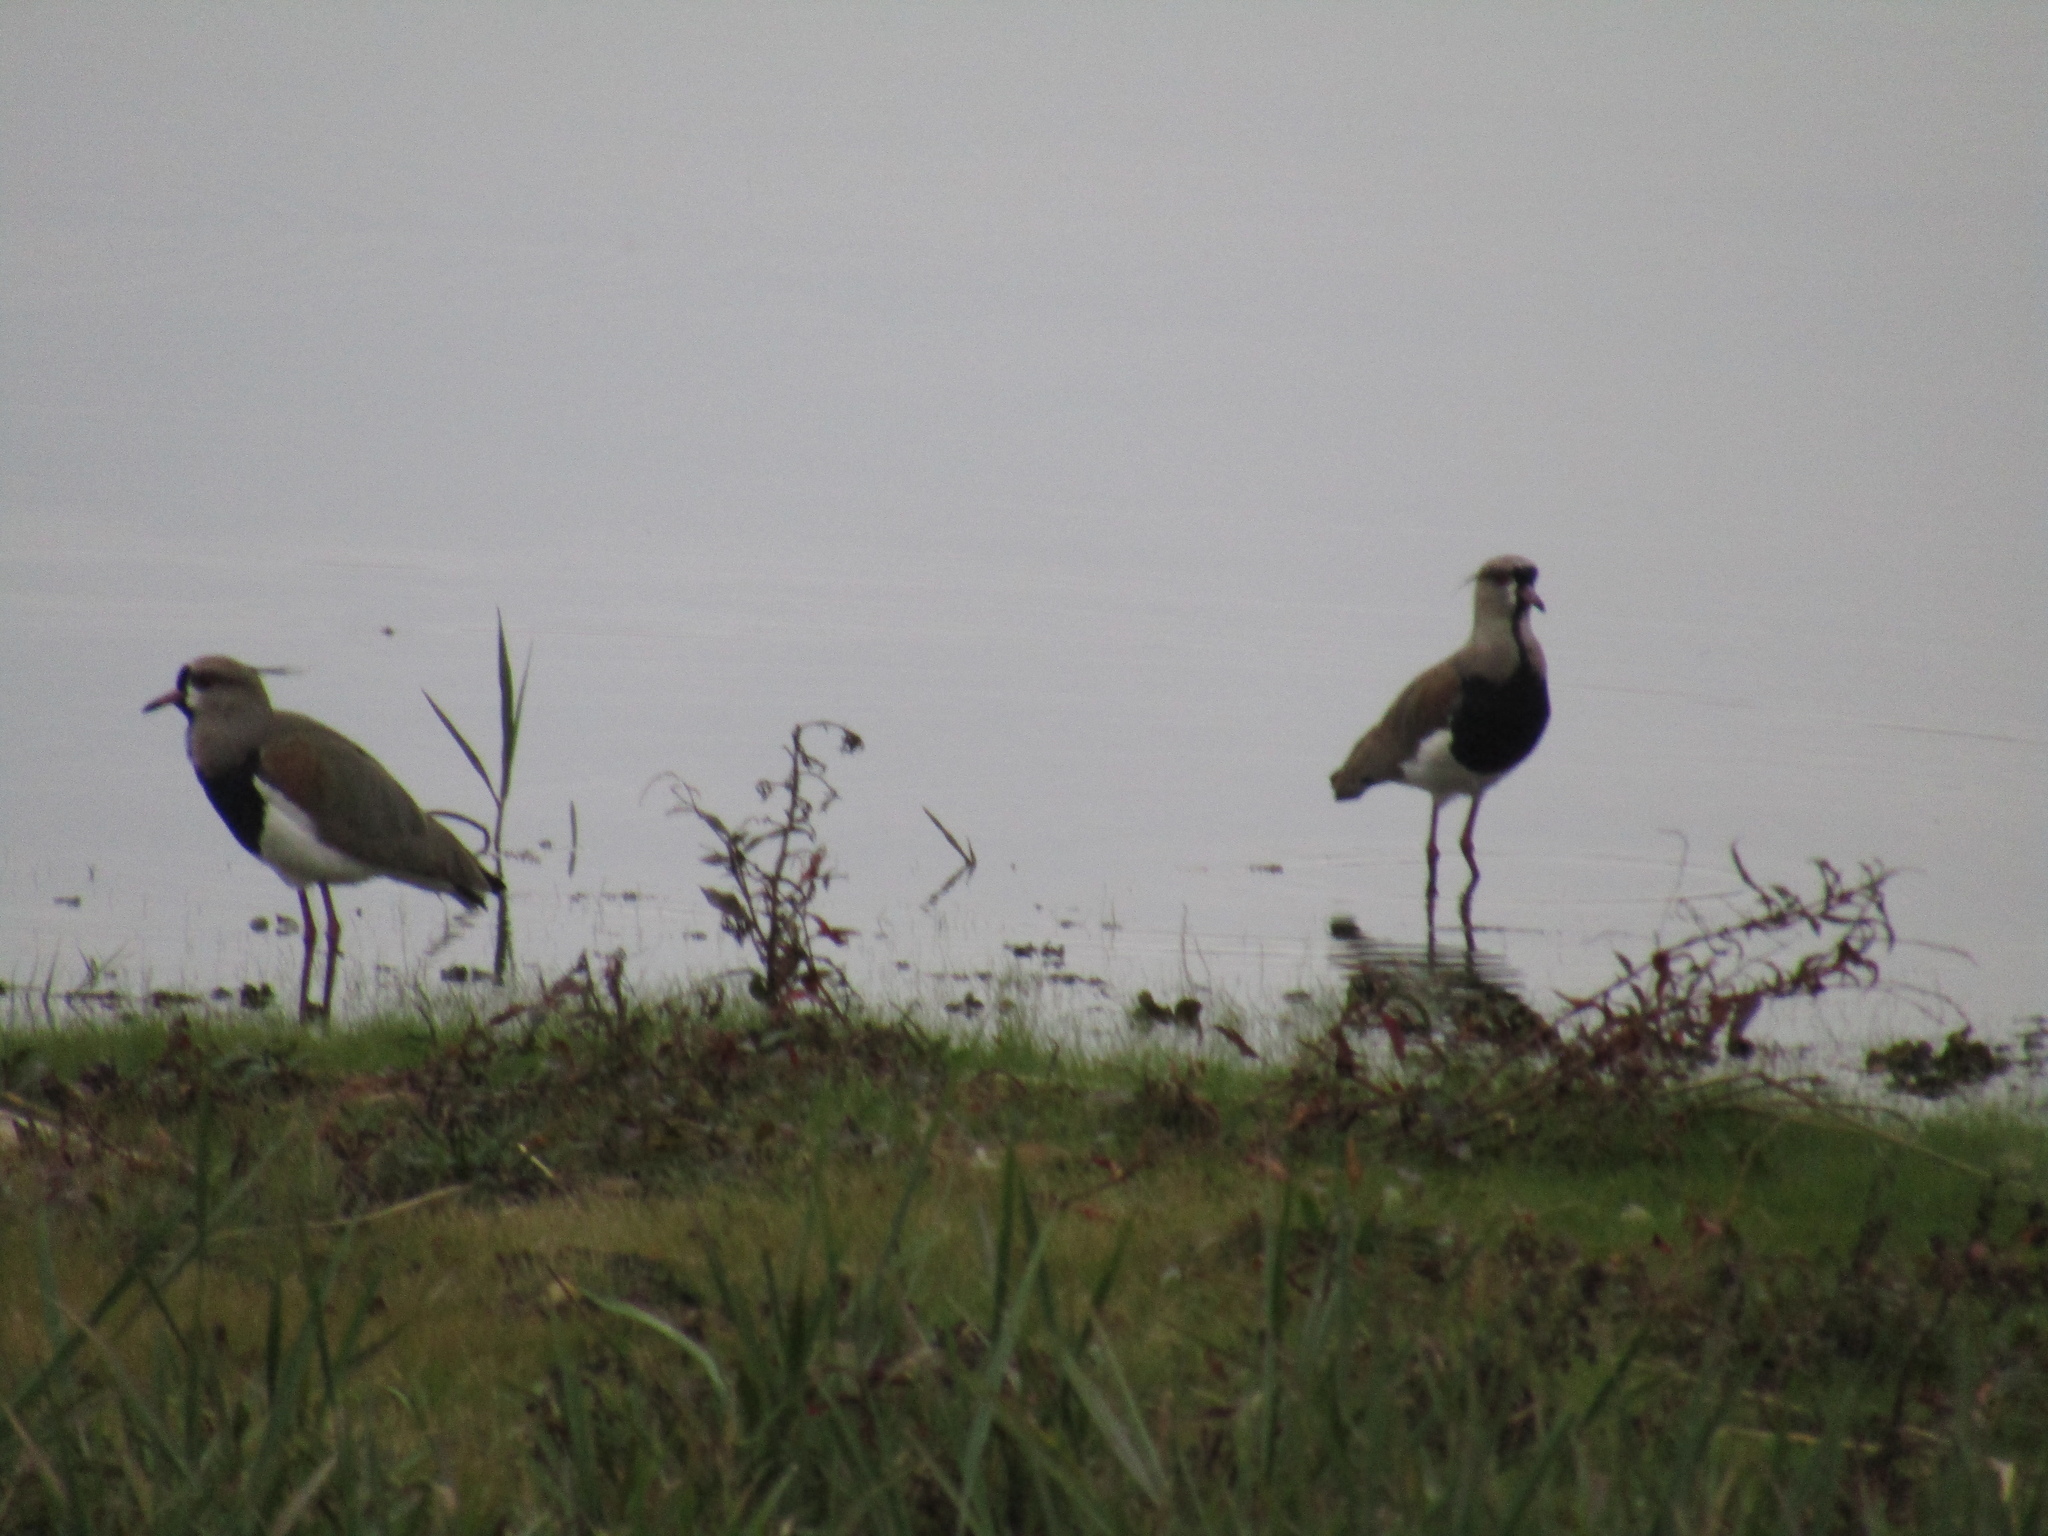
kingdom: Animalia
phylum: Chordata
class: Aves
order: Charadriiformes
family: Charadriidae
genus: Vanellus
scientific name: Vanellus chilensis
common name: Southern lapwing
